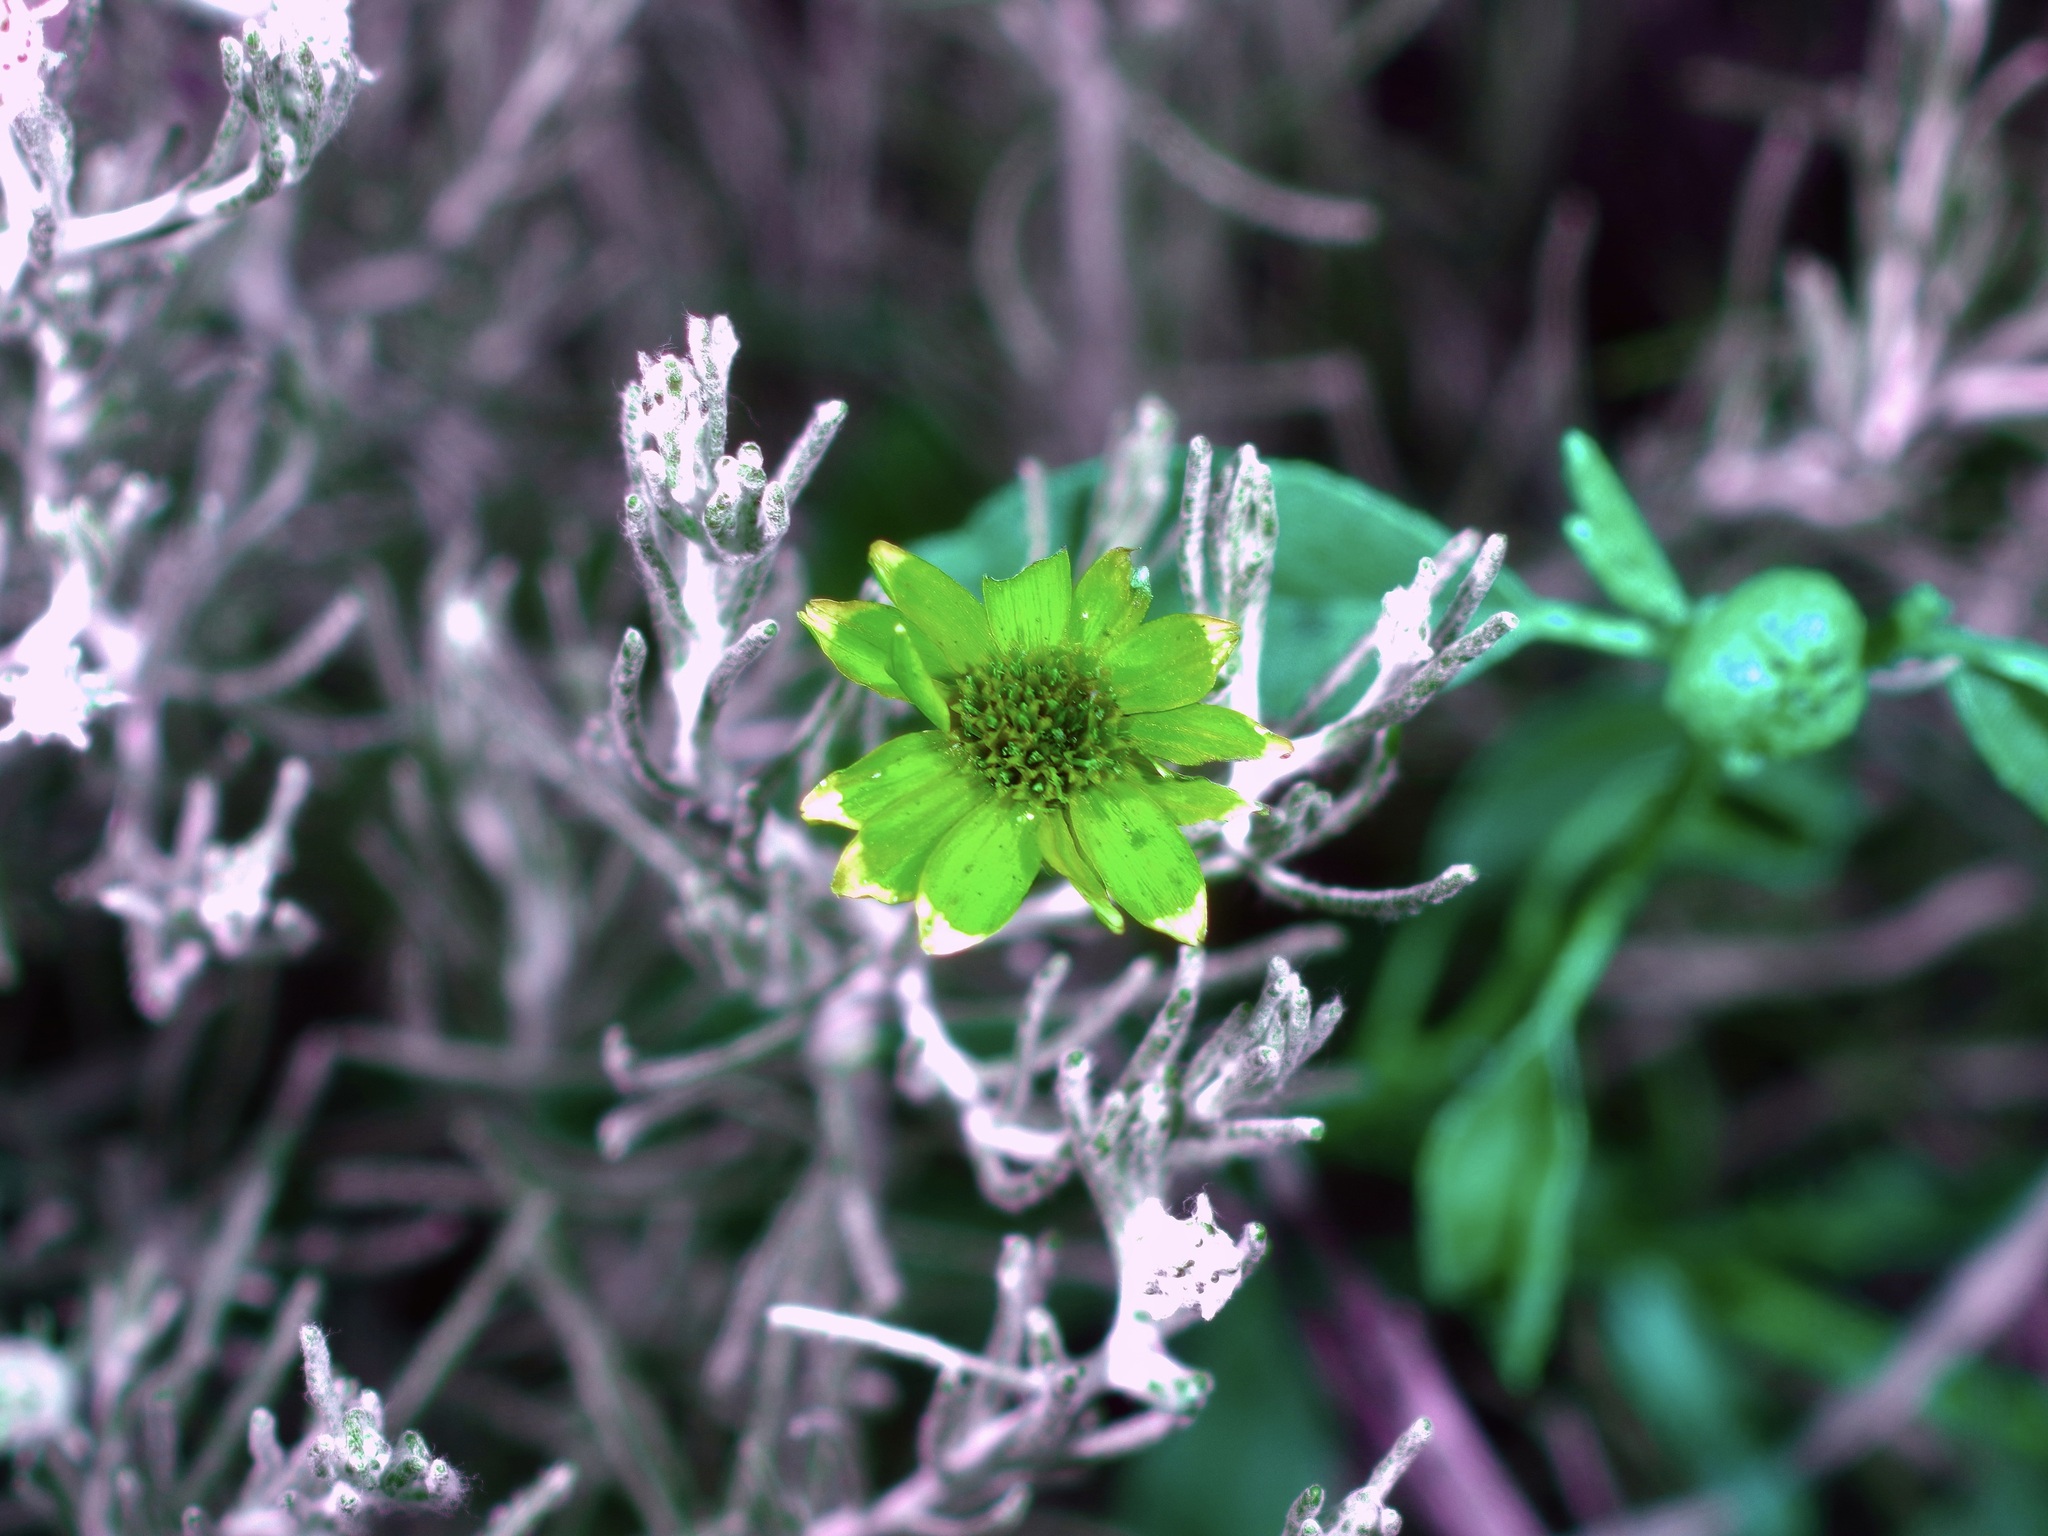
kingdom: Plantae
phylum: Tracheophyta
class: Magnoliopsida
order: Asterales
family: Asteraceae
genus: Thymophylla
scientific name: Thymophylla tephroleuca
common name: Ashy dogweed
